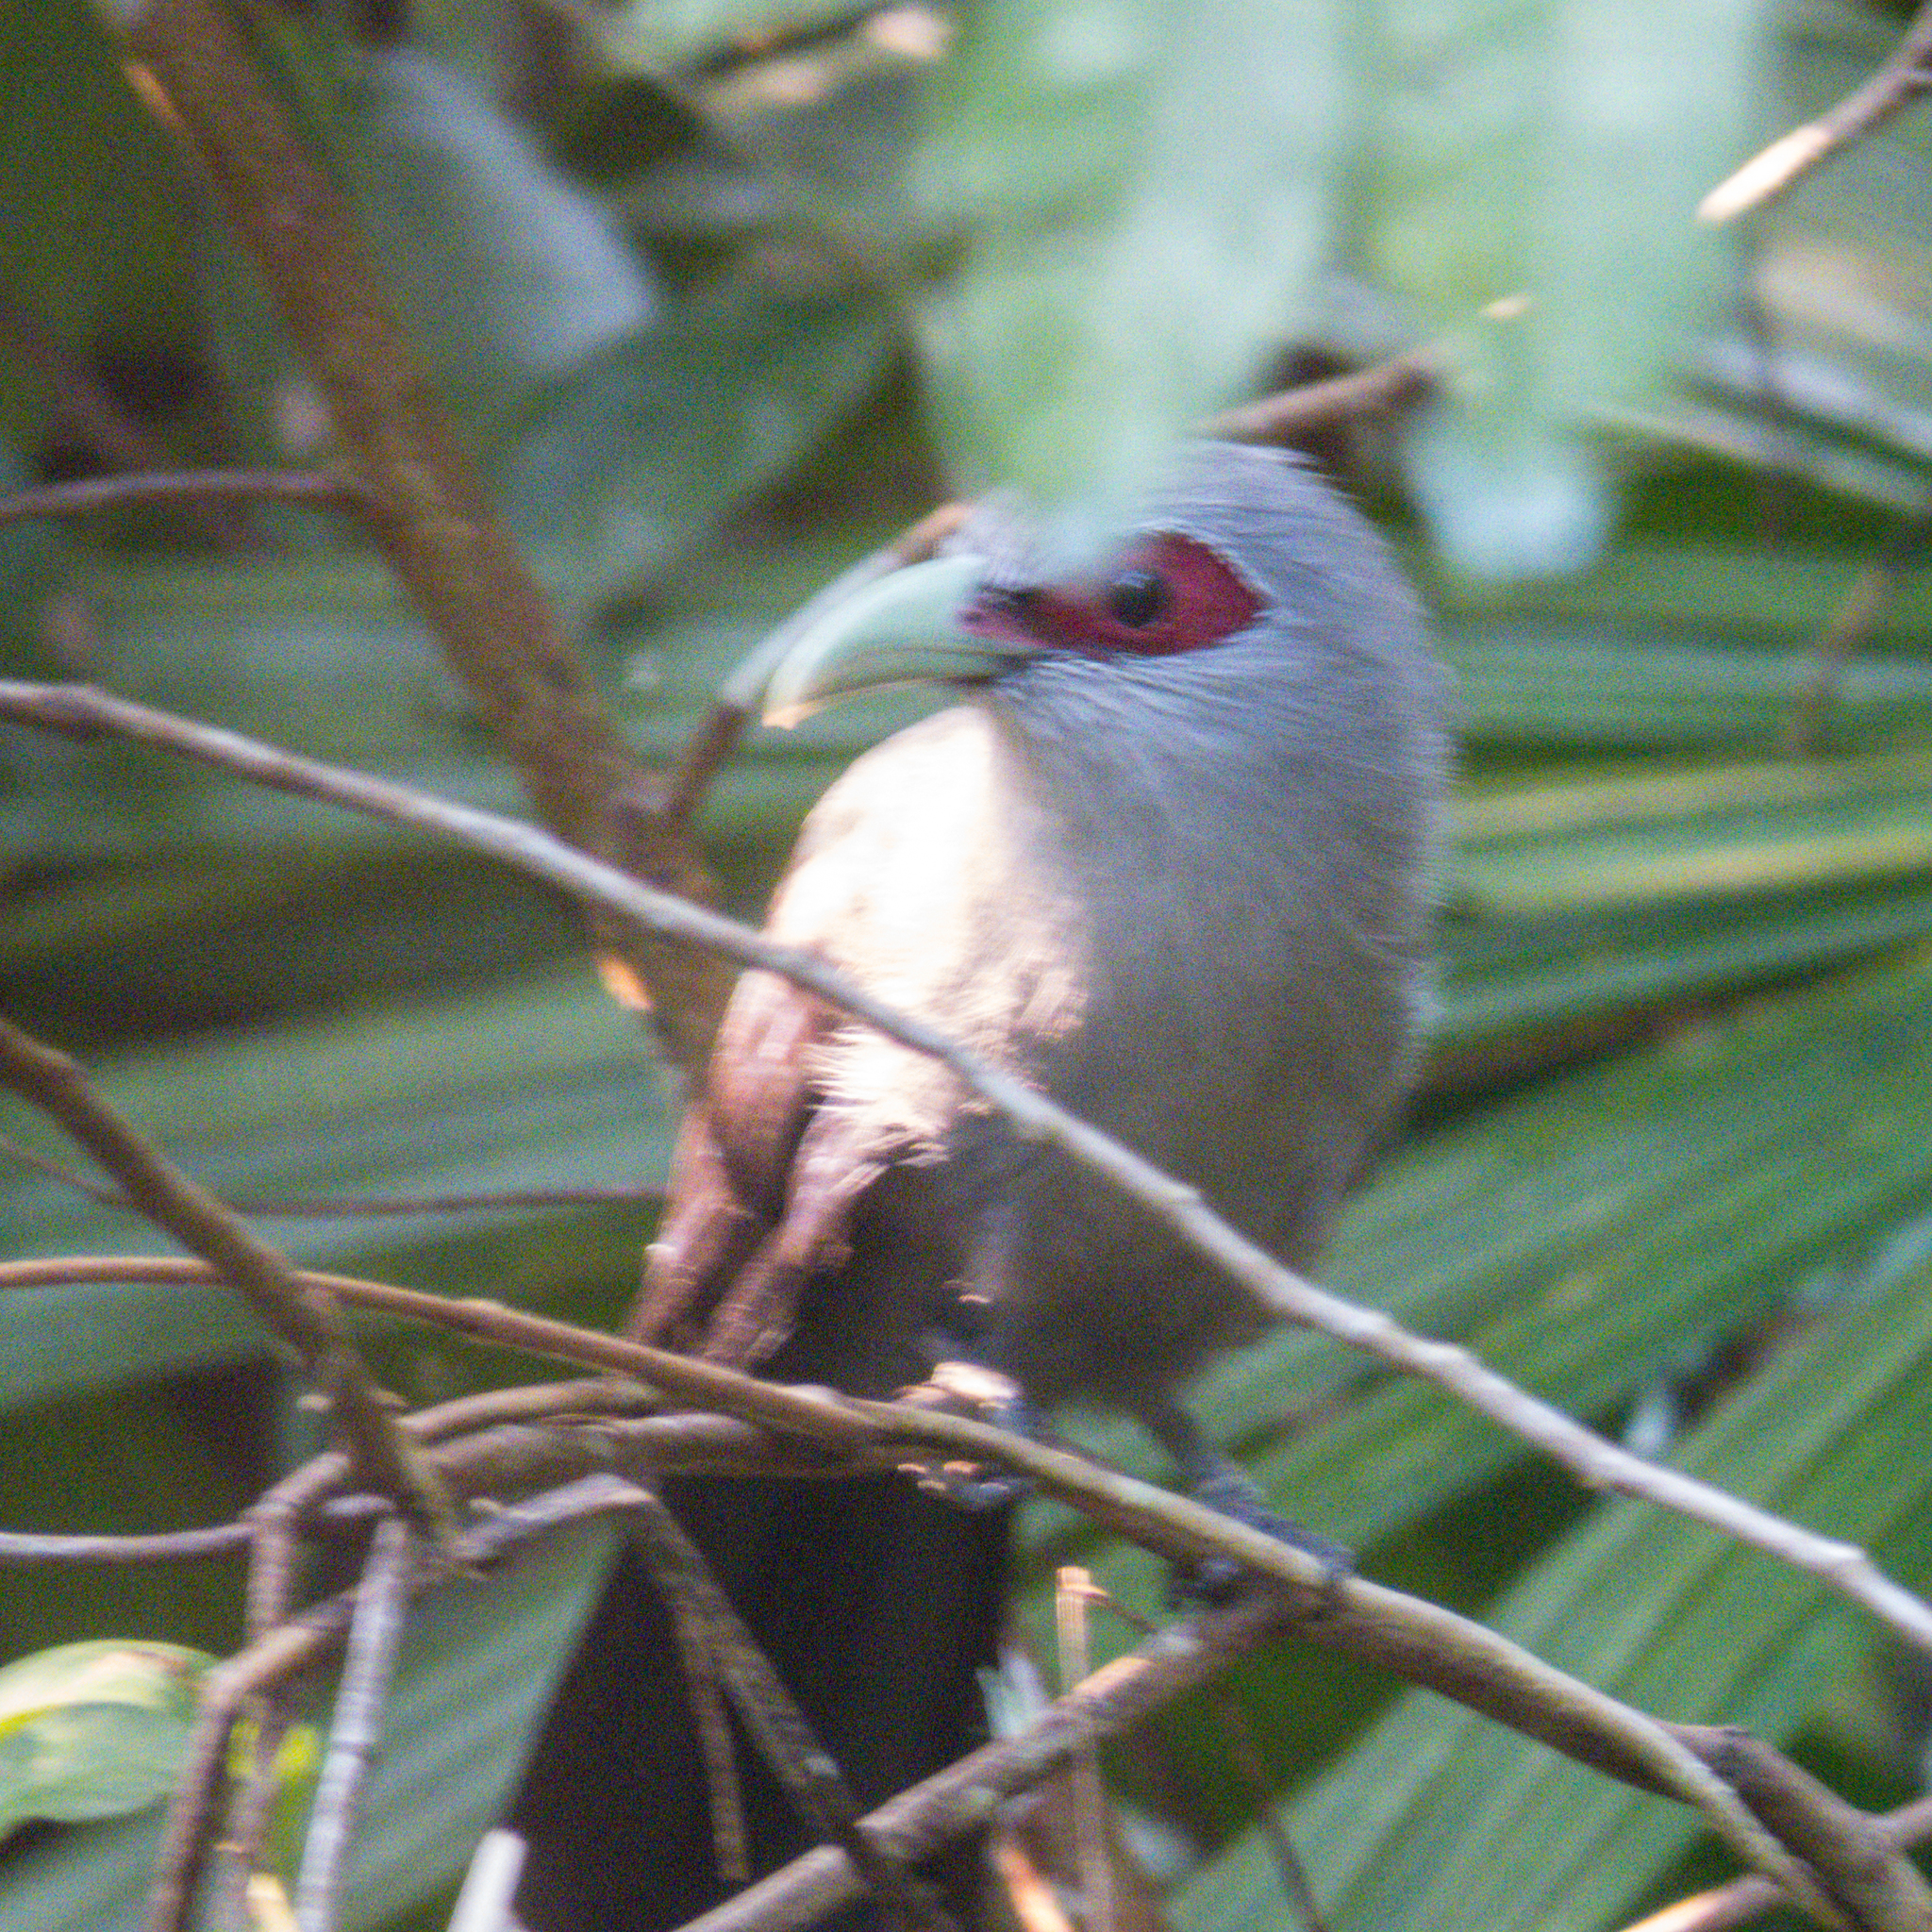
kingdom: Animalia
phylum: Chordata
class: Aves
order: Cuculiformes
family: Cuculidae
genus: Rhopodytes
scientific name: Rhopodytes tristis
